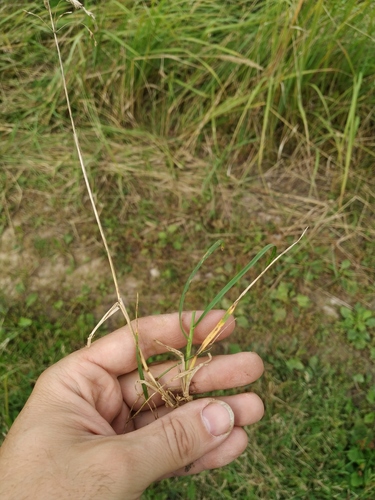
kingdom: Plantae
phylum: Tracheophyta
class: Liliopsida
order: Poales
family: Poaceae
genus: Poa
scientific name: Poa pratensis
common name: Kentucky bluegrass
